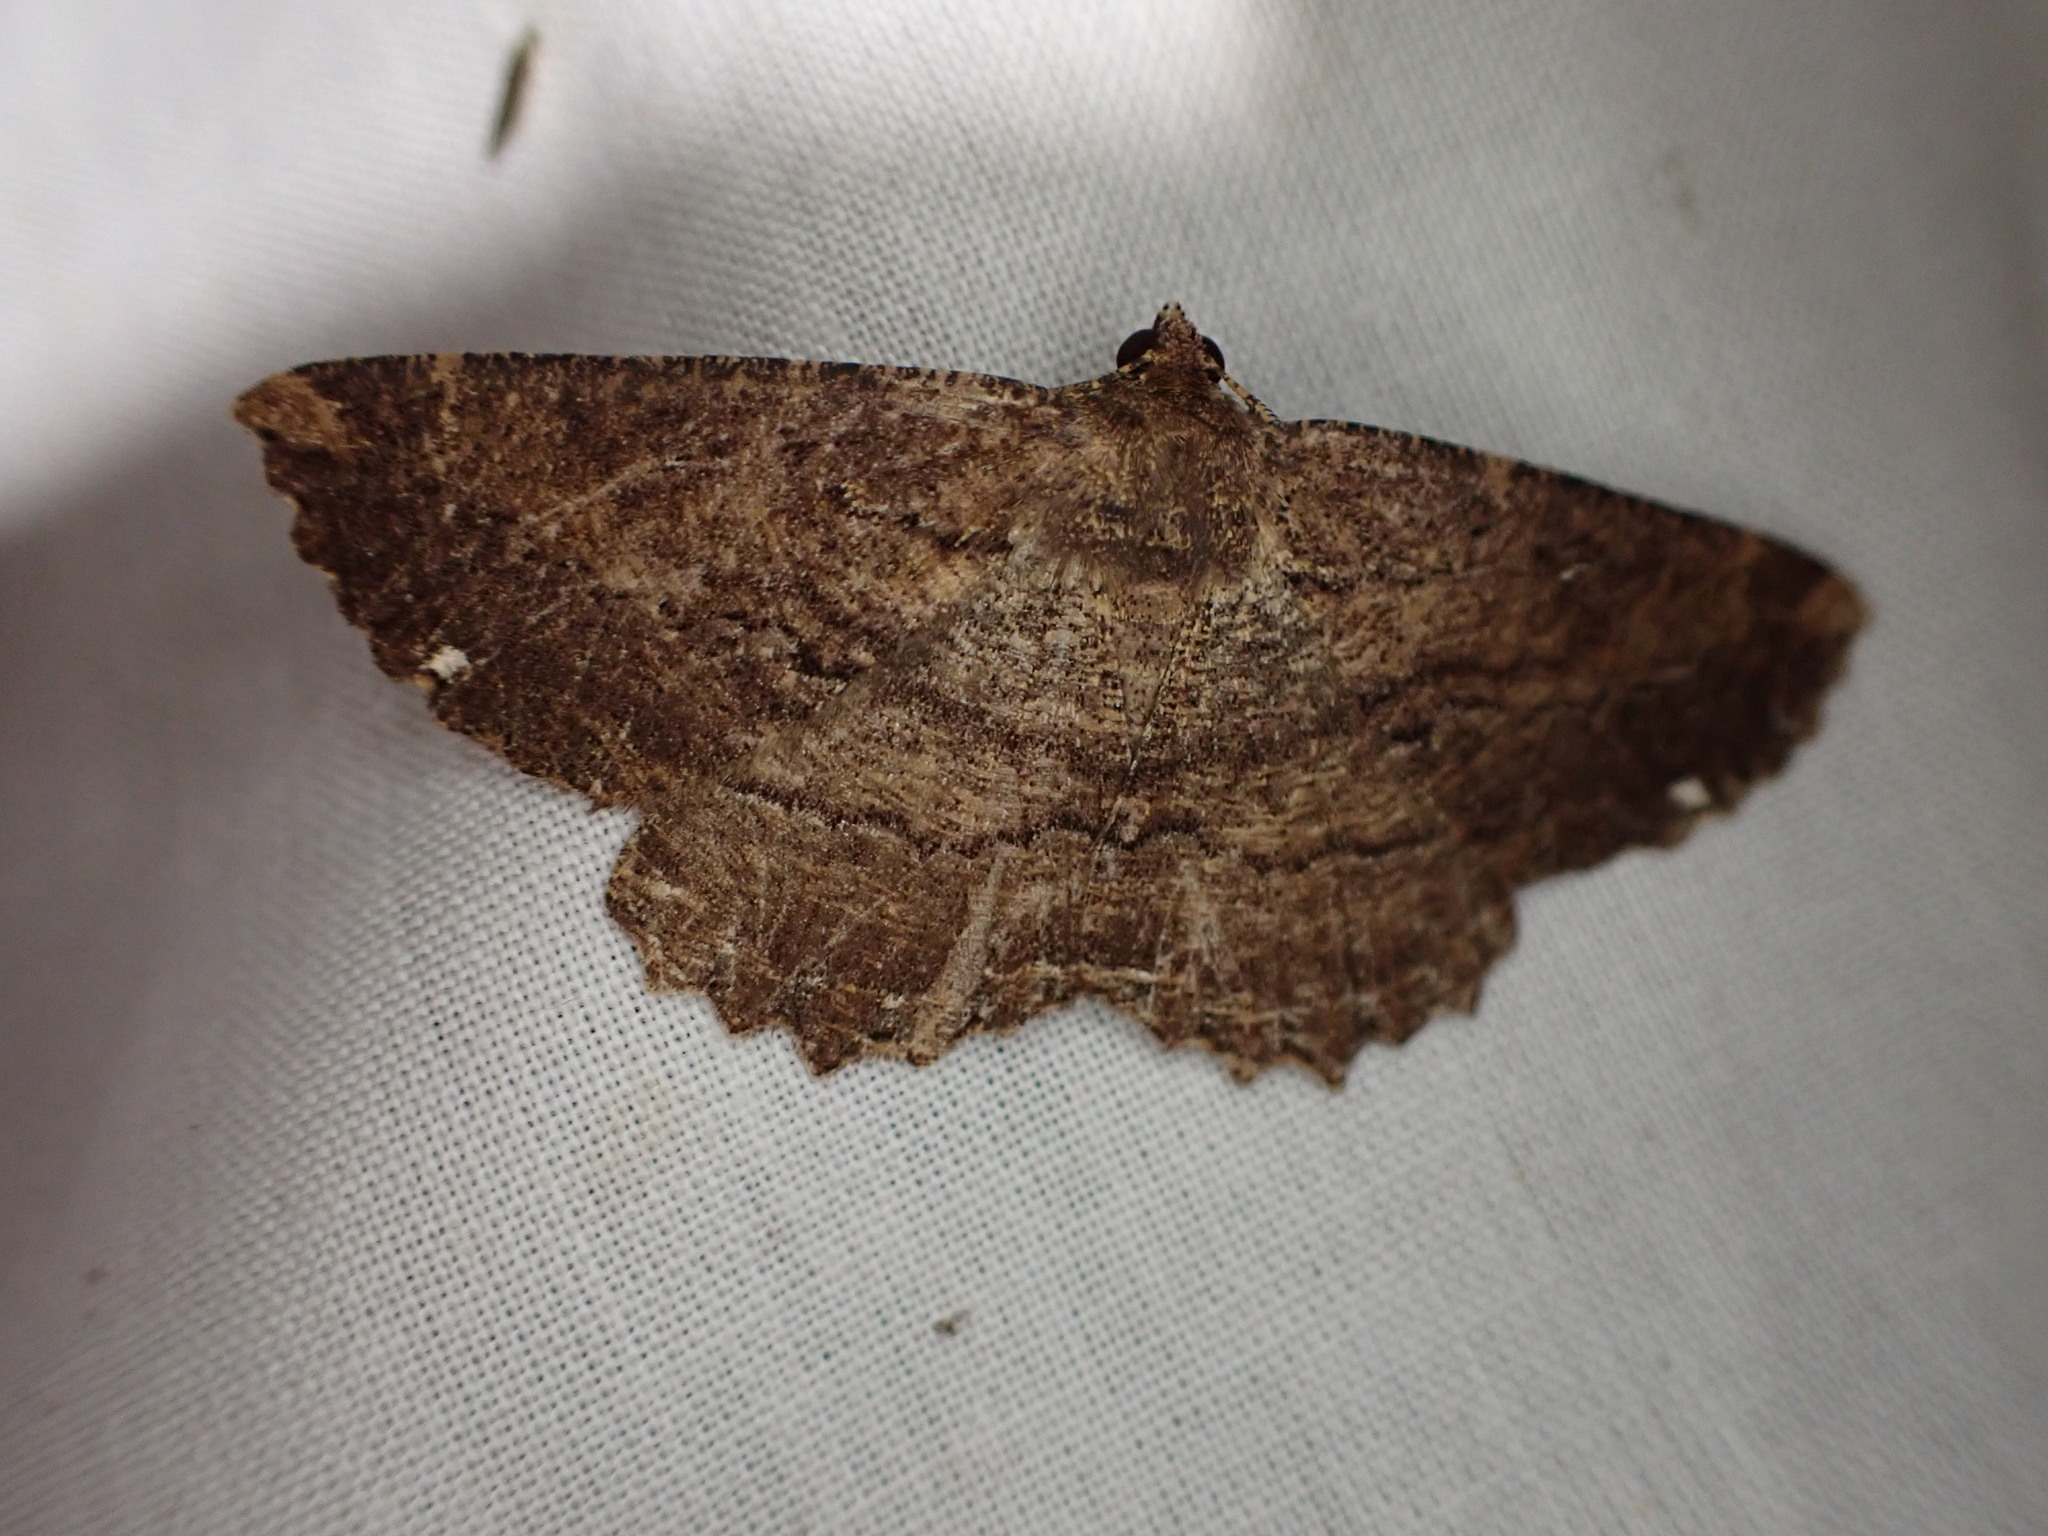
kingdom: Animalia
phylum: Arthropoda
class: Insecta
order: Lepidoptera
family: Geometridae
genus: Gellonia
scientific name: Gellonia dejectaria
